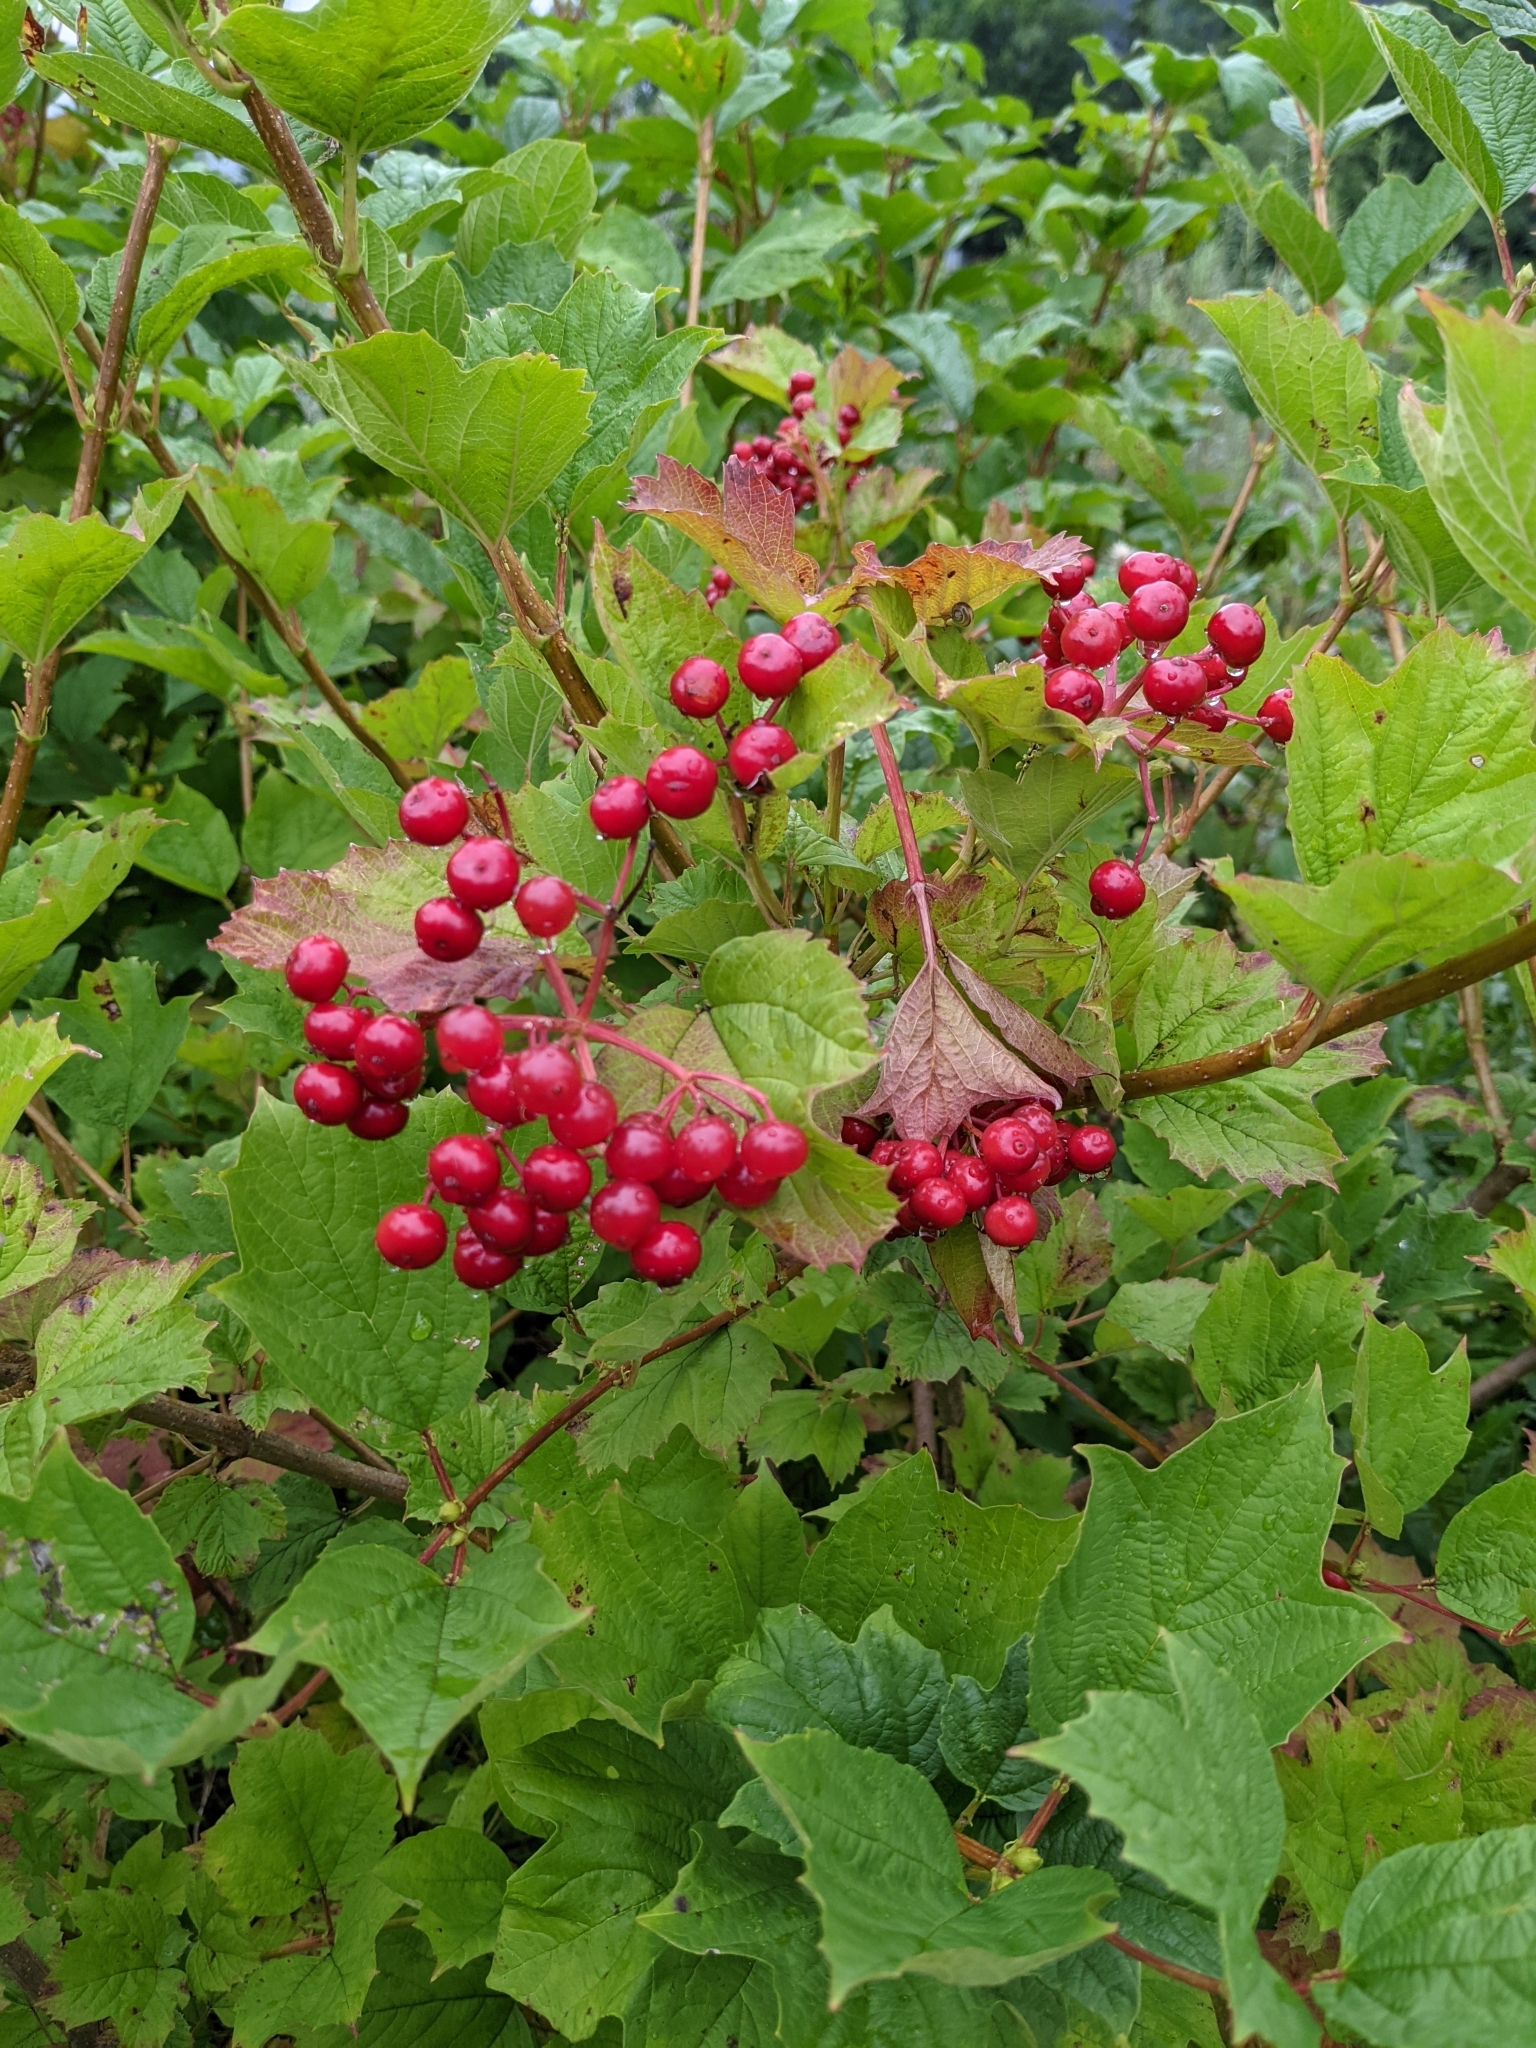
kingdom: Plantae
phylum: Tracheophyta
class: Magnoliopsida
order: Dipsacales
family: Viburnaceae
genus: Viburnum
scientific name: Viburnum opulus
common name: Guelder-rose
